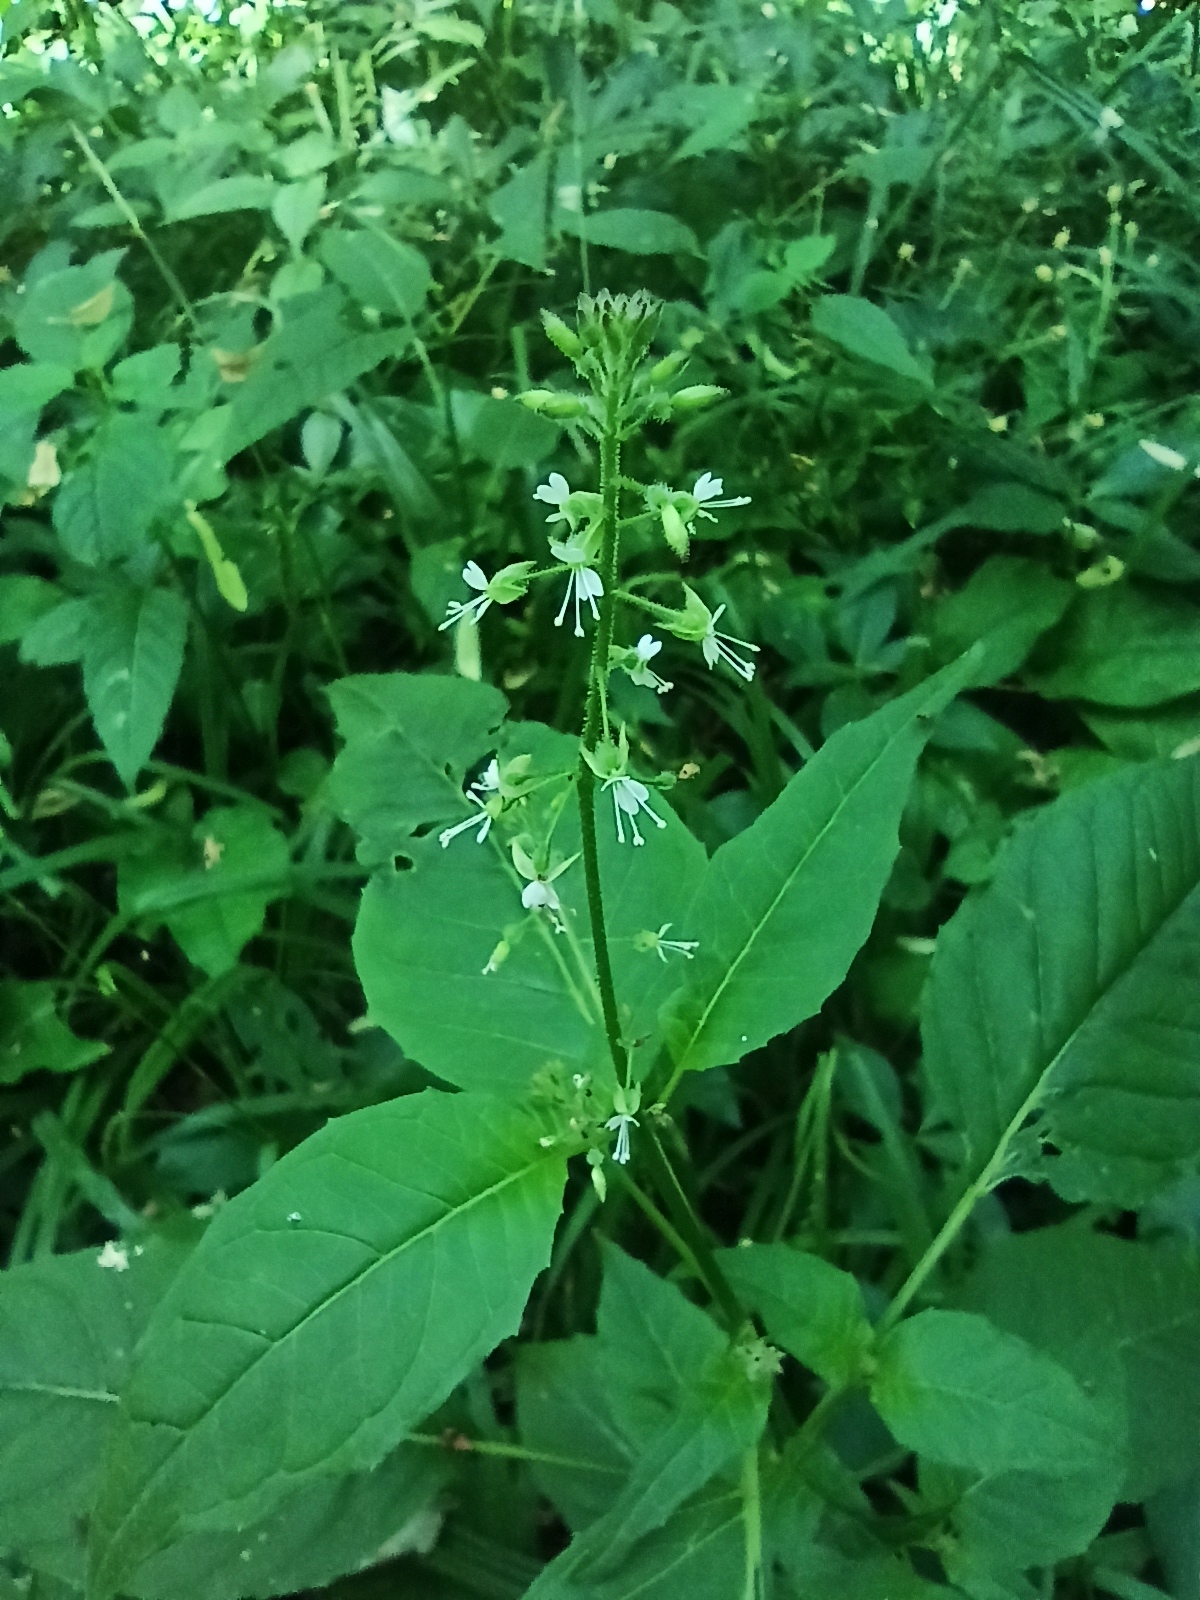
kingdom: Plantae
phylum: Tracheophyta
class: Magnoliopsida
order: Myrtales
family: Onagraceae
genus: Circaea
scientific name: Circaea lutetiana
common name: Enchanter's-nightshade
